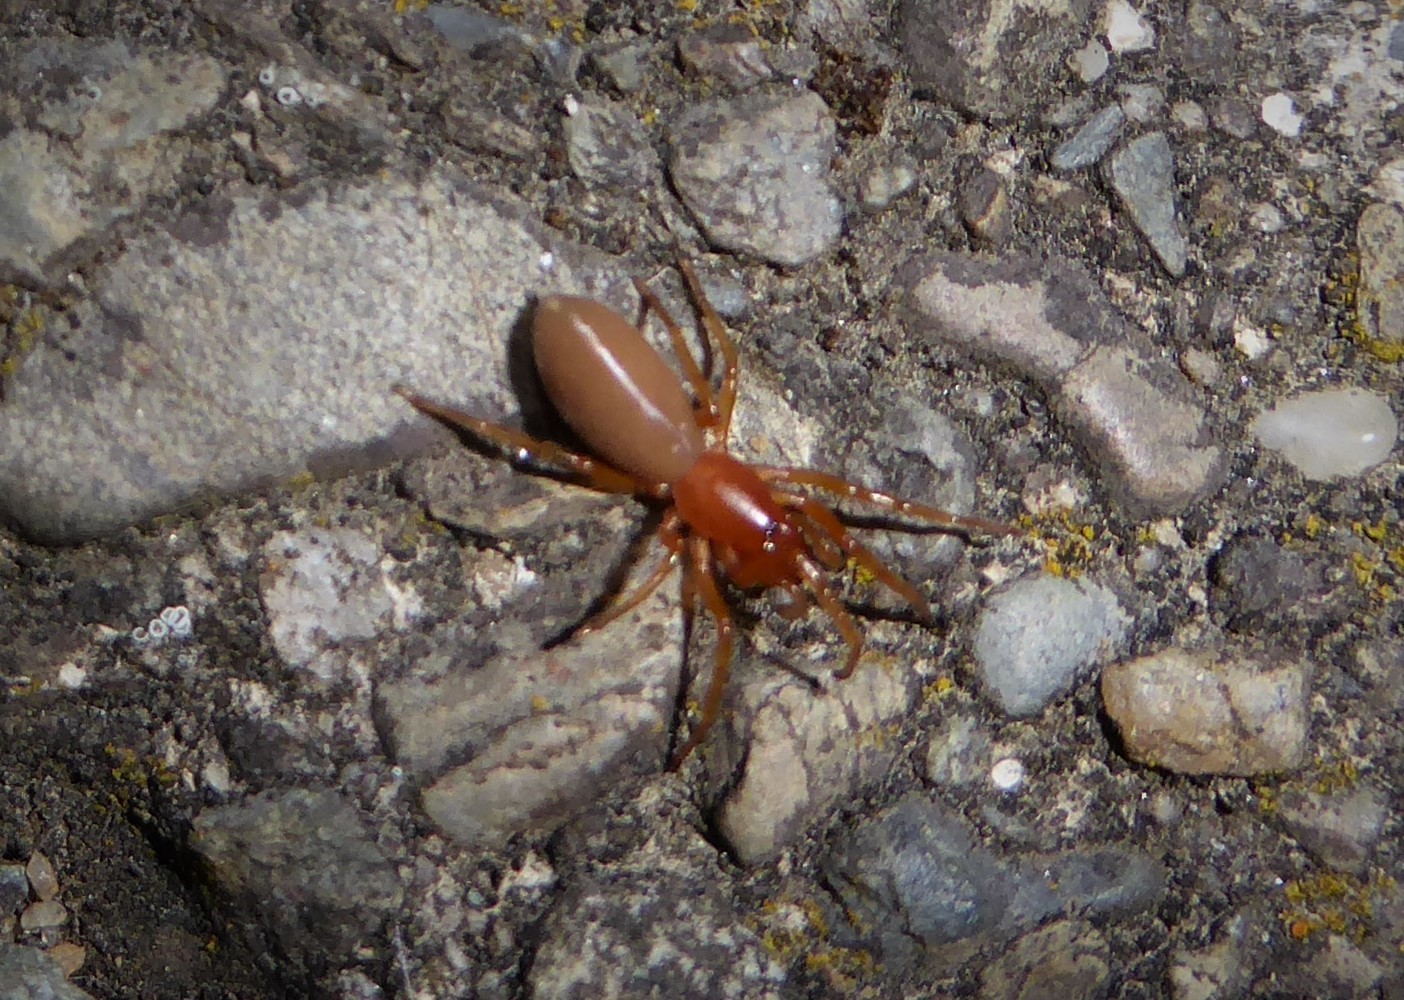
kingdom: Animalia
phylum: Arthropoda
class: Arachnida
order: Araneae
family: Dysderidae
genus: Dysdera
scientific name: Dysdera crocata
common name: Woodlouse spider
